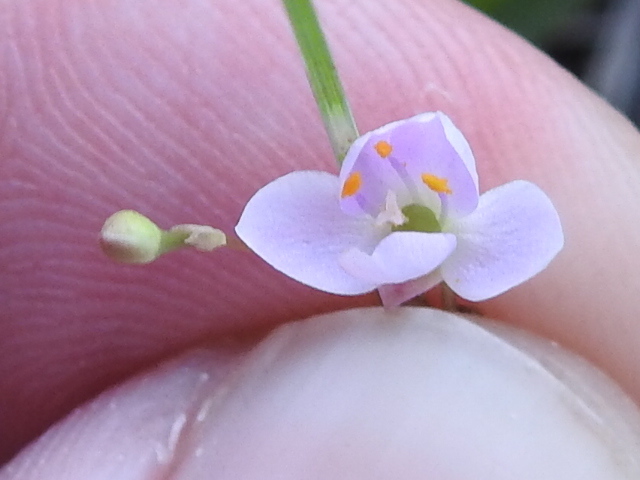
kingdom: Plantae
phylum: Tracheophyta
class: Magnoliopsida
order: Caryophyllales
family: Montiaceae
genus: Phemeranthus
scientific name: Phemeranthus parviflorus
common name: Sunbright
